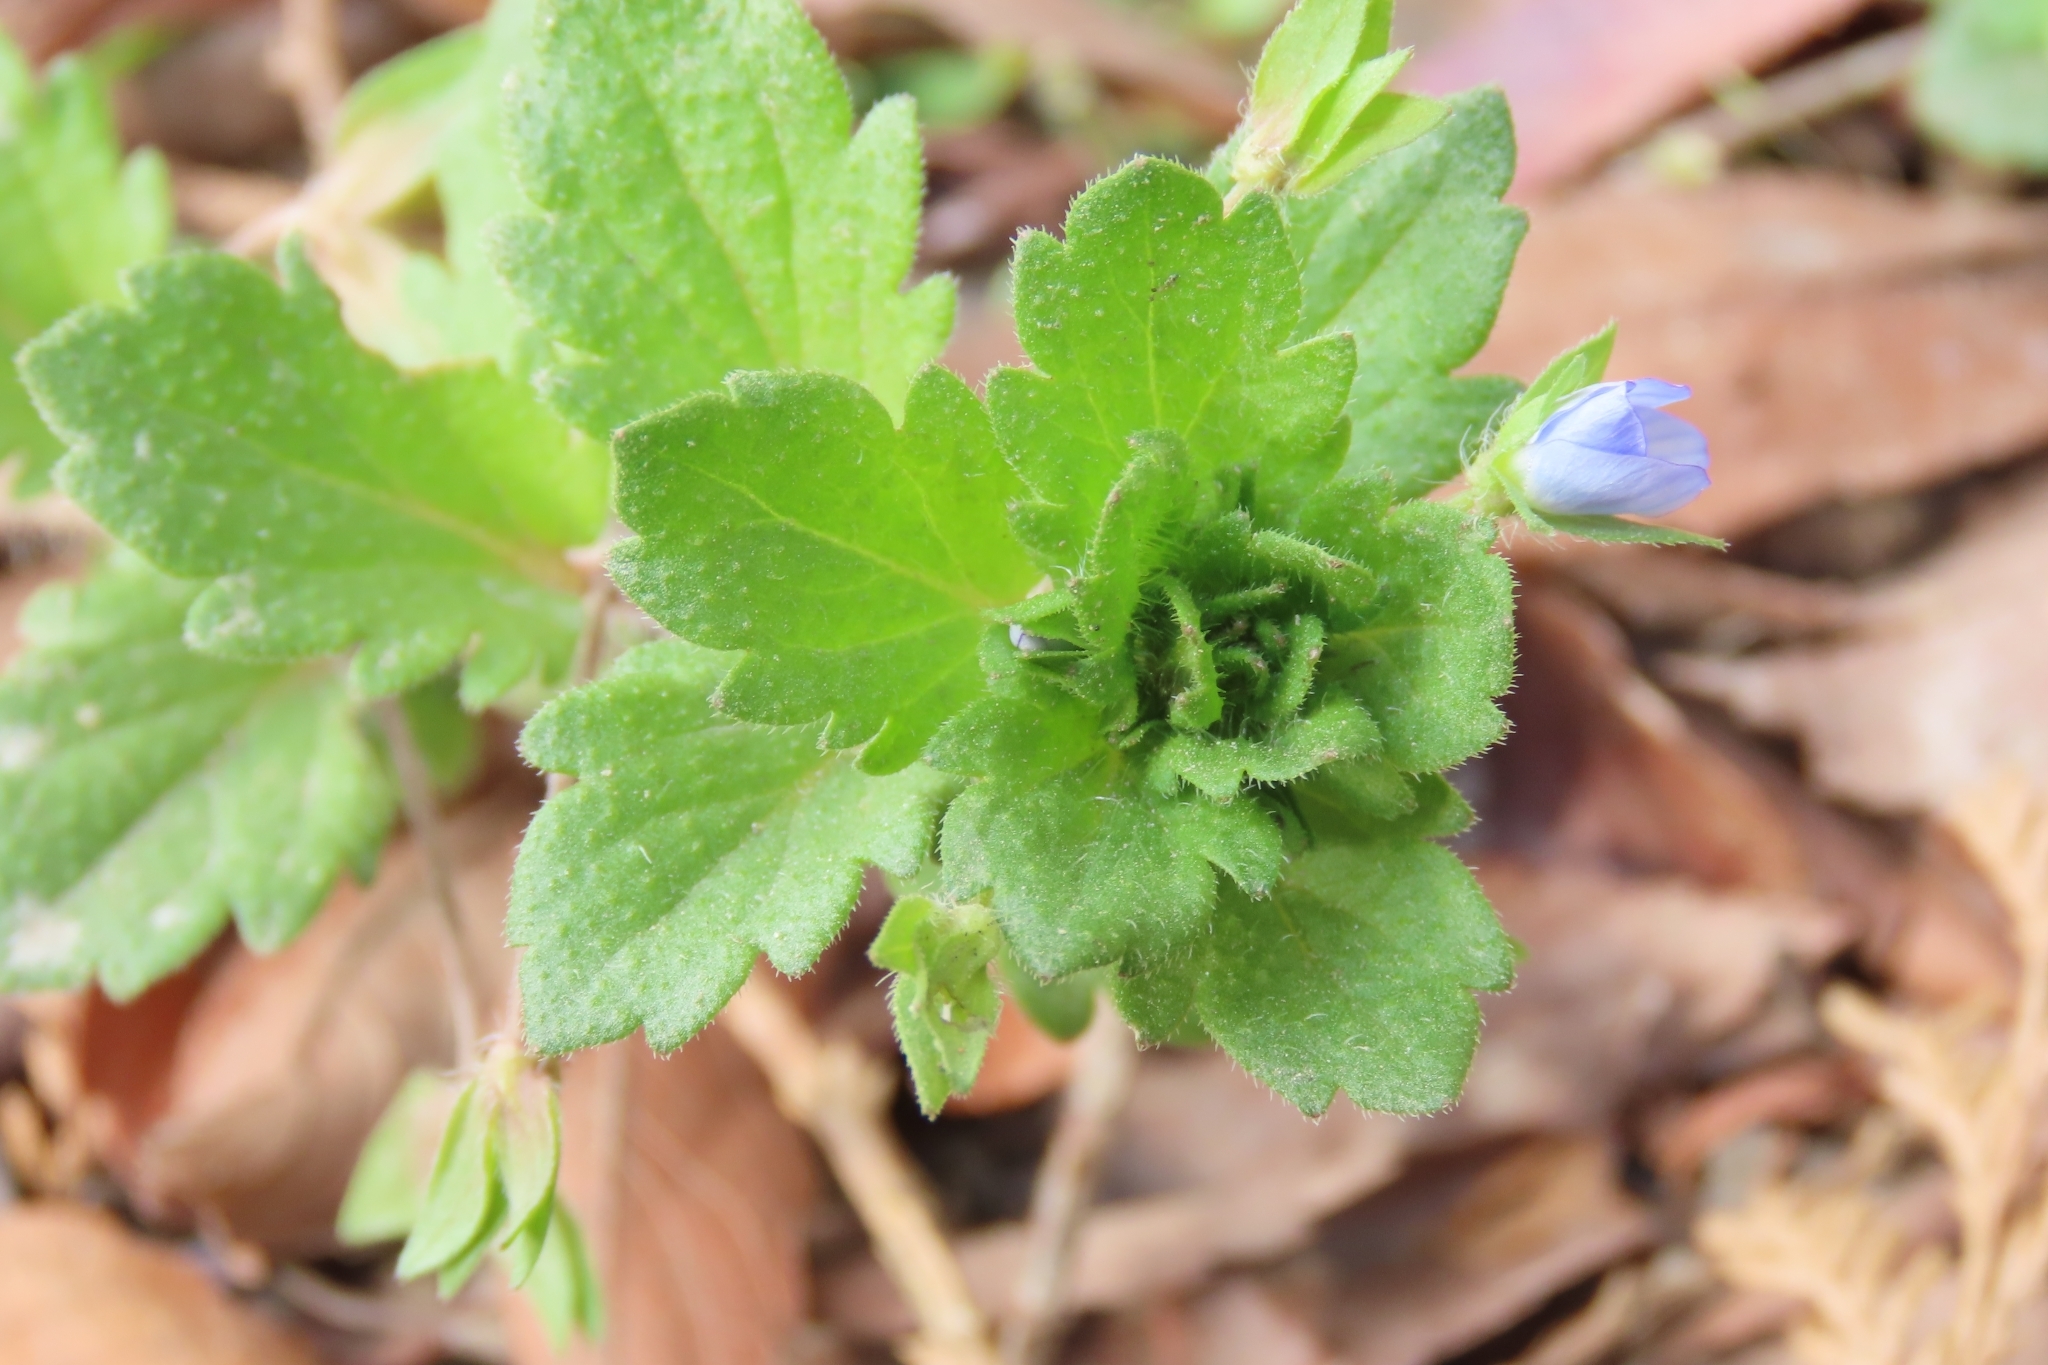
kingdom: Plantae
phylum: Tracheophyta
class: Magnoliopsida
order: Lamiales
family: Plantaginaceae
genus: Veronica
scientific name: Veronica persica
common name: Common field-speedwell
